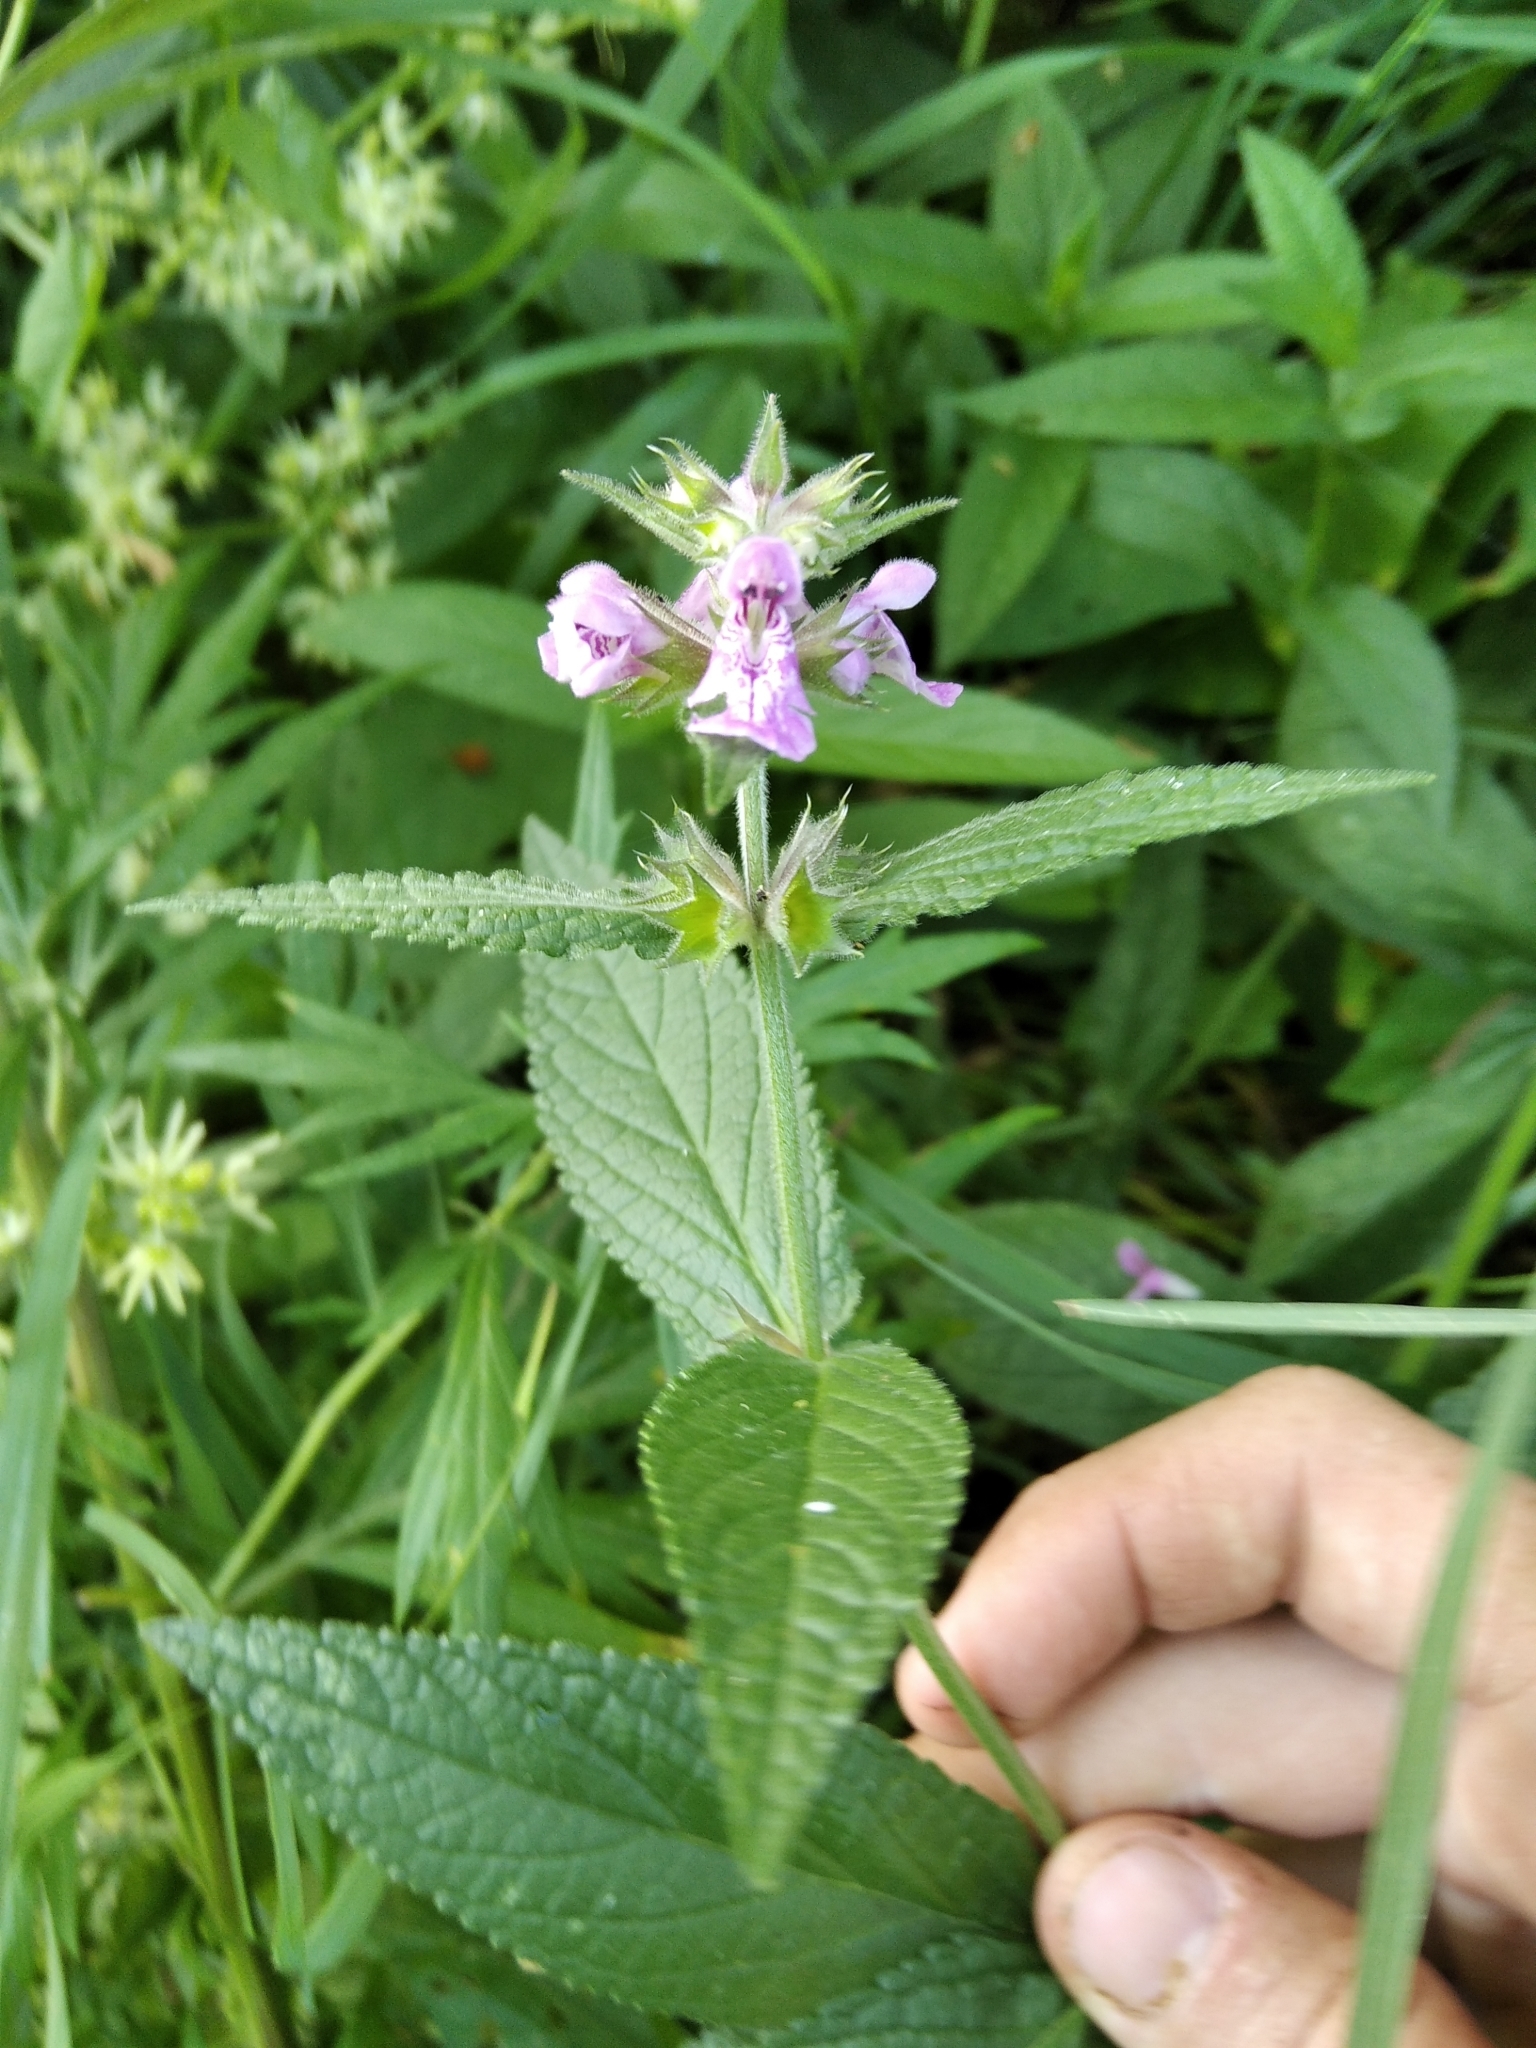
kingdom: Plantae
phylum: Tracheophyta
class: Magnoliopsida
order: Lamiales
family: Lamiaceae
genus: Stachys
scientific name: Stachys palustris
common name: Marsh woundwort
